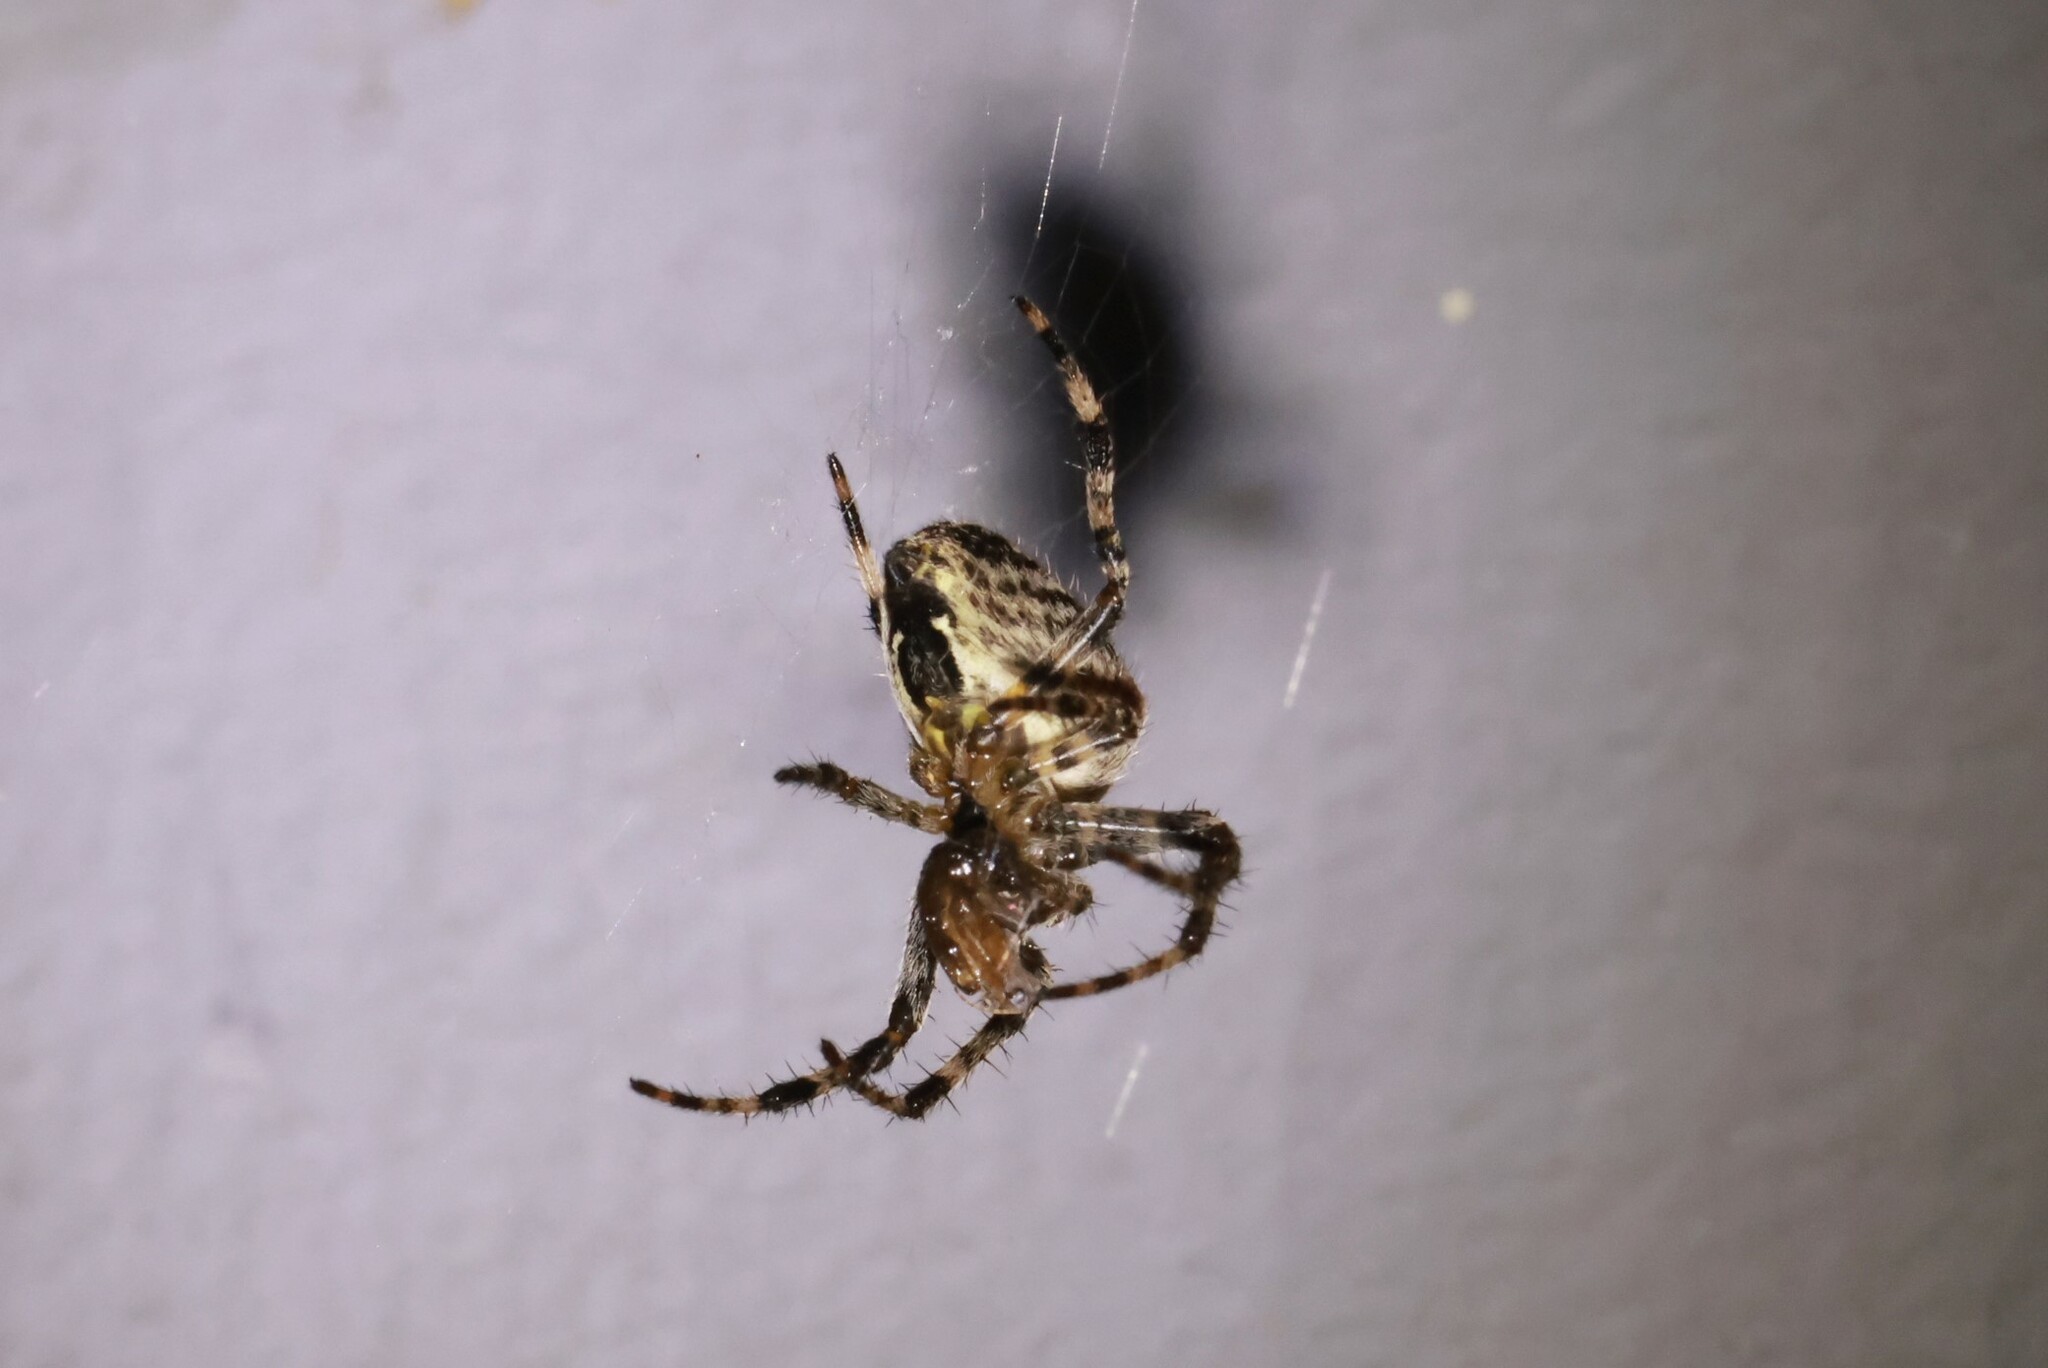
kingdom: Animalia
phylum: Arthropoda
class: Arachnida
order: Araneae
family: Araneidae
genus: Araneus
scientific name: Araneus diadematus
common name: Cross orbweaver
